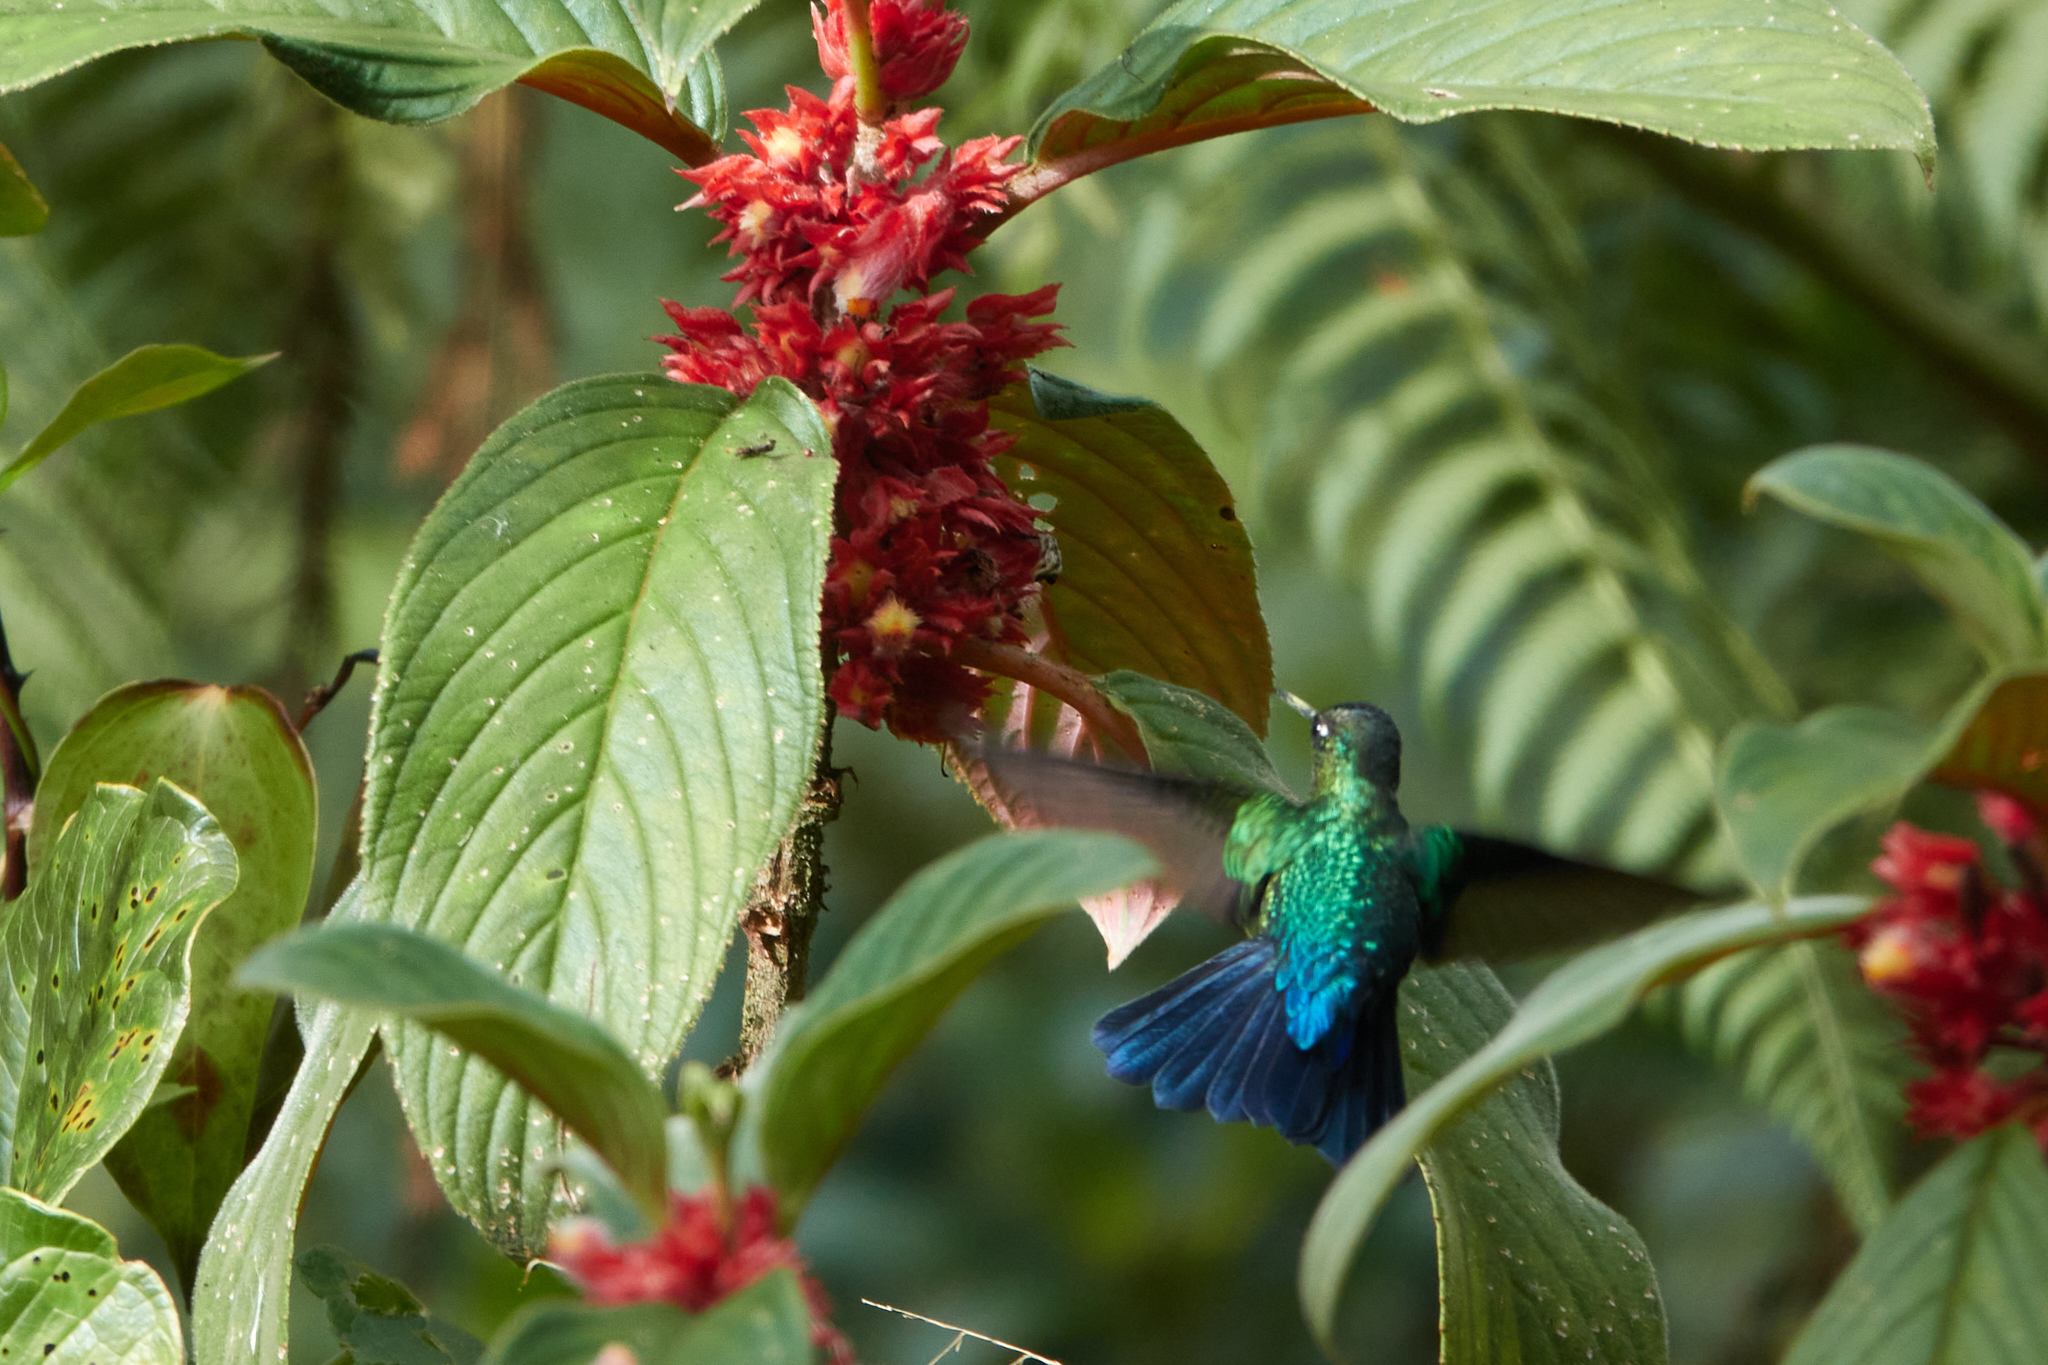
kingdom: Animalia
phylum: Chordata
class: Aves
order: Apodiformes
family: Trochilidae
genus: Panterpe
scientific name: Panterpe insignis
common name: Fiery-throated hummingbird
